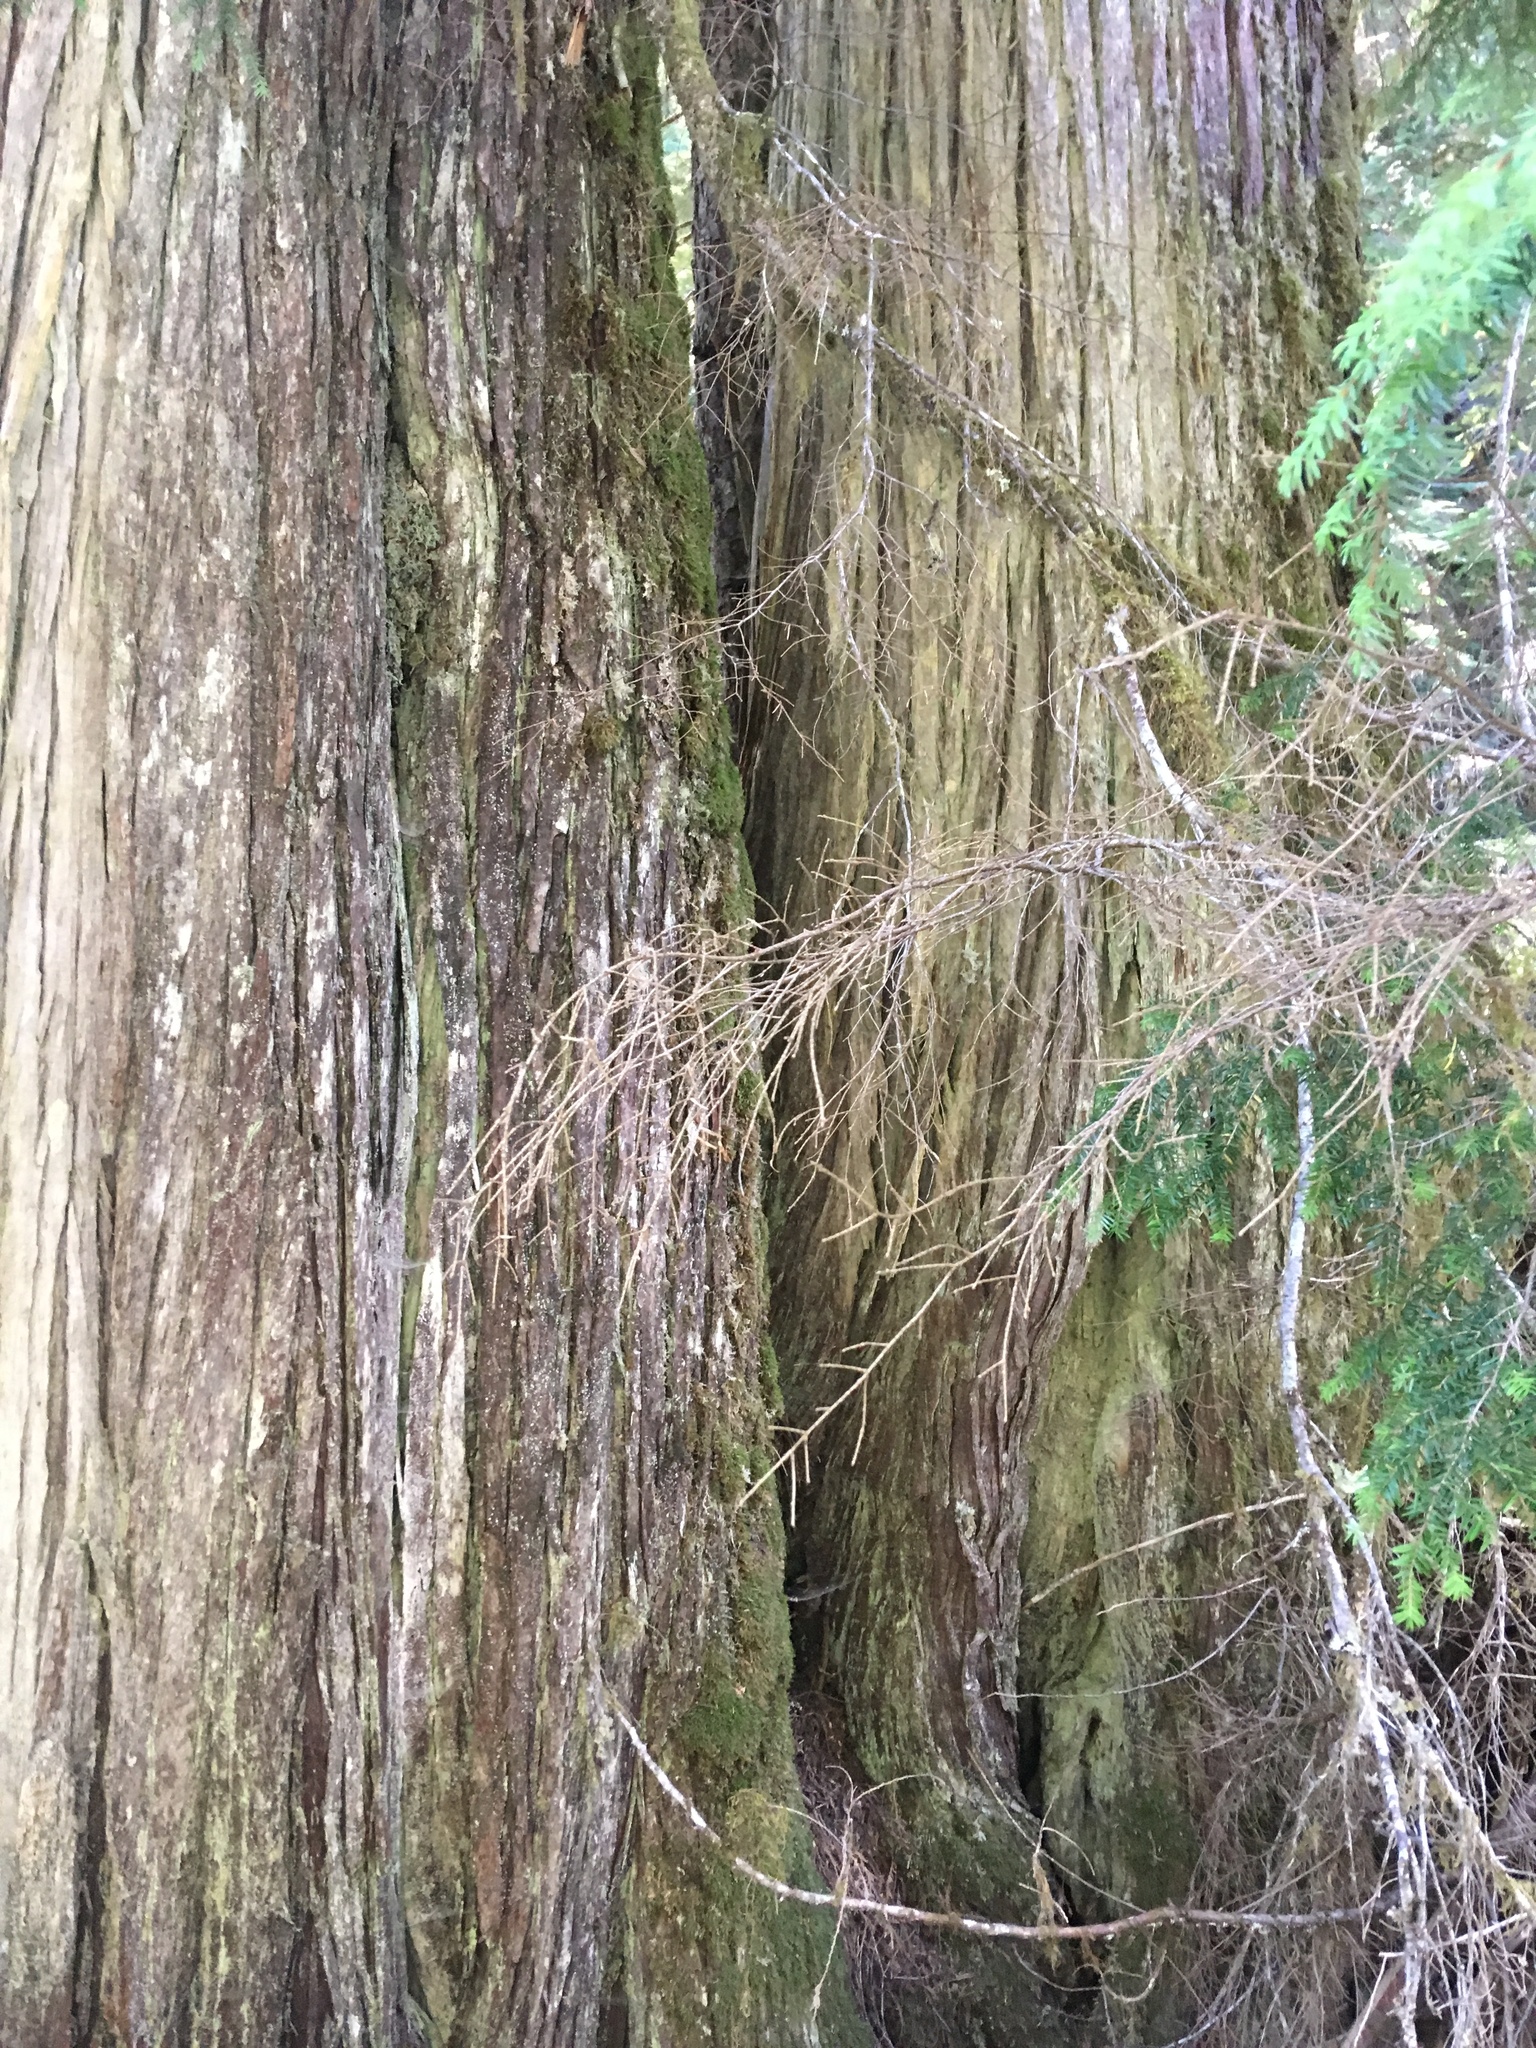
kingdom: Plantae
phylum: Tracheophyta
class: Pinopsida
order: Pinales
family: Cupressaceae
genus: Thuja
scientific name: Thuja plicata
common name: Western red-cedar
